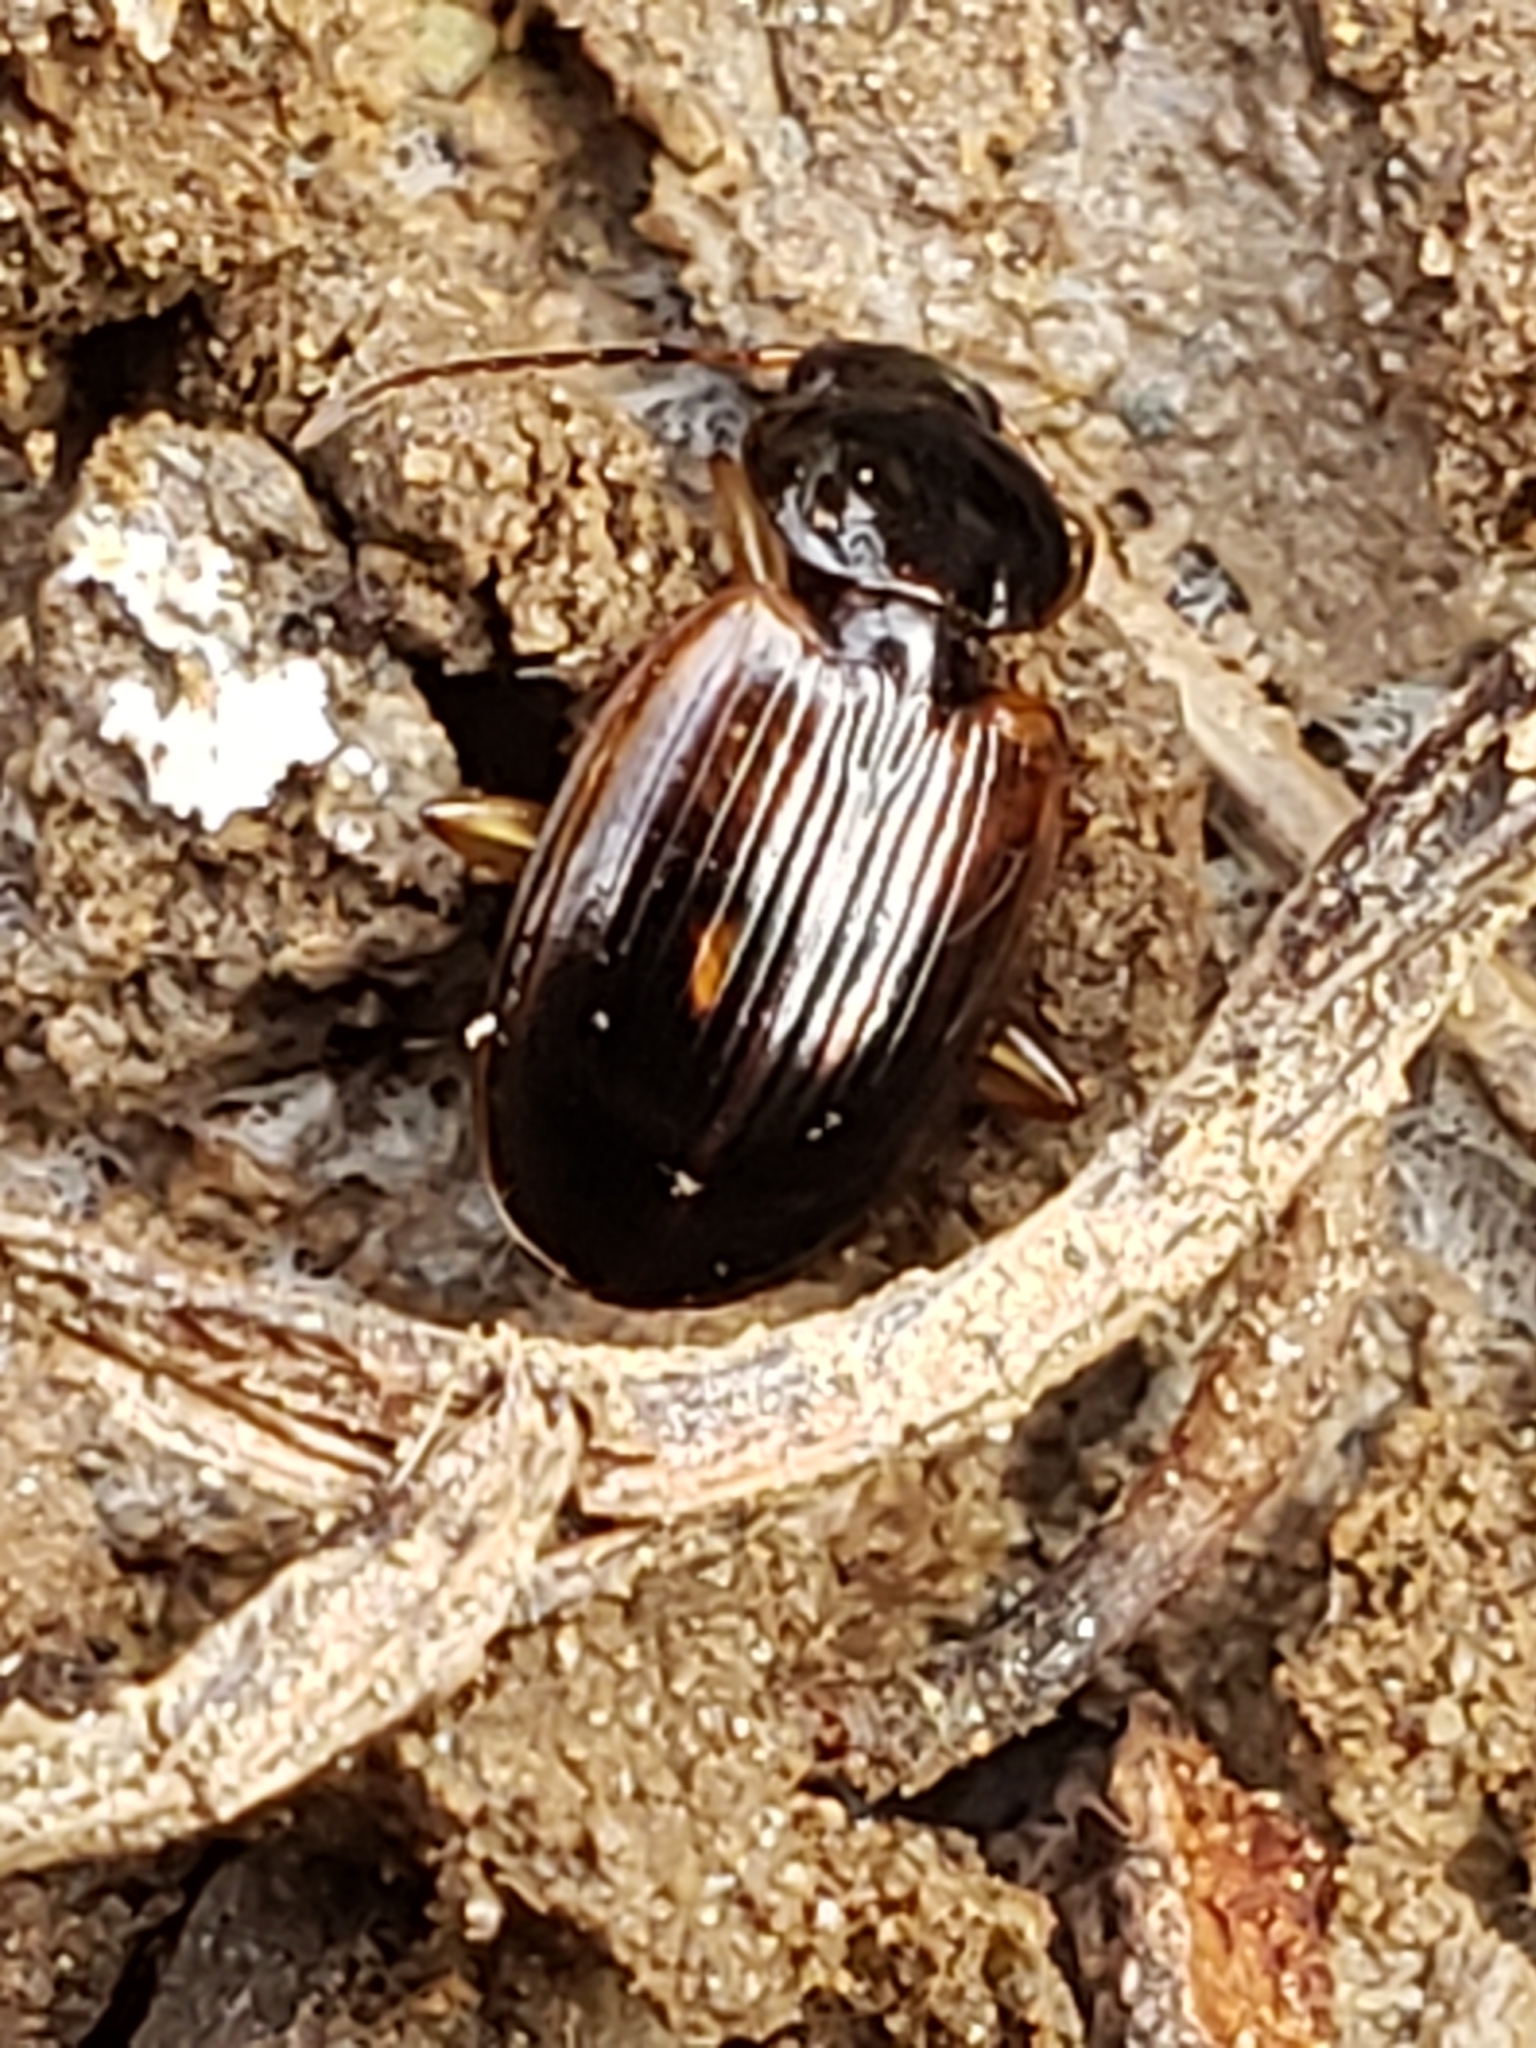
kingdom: Animalia
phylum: Arthropoda
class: Insecta
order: Coleoptera
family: Carabidae
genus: Olisthopus
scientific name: Olisthopus parmatus
